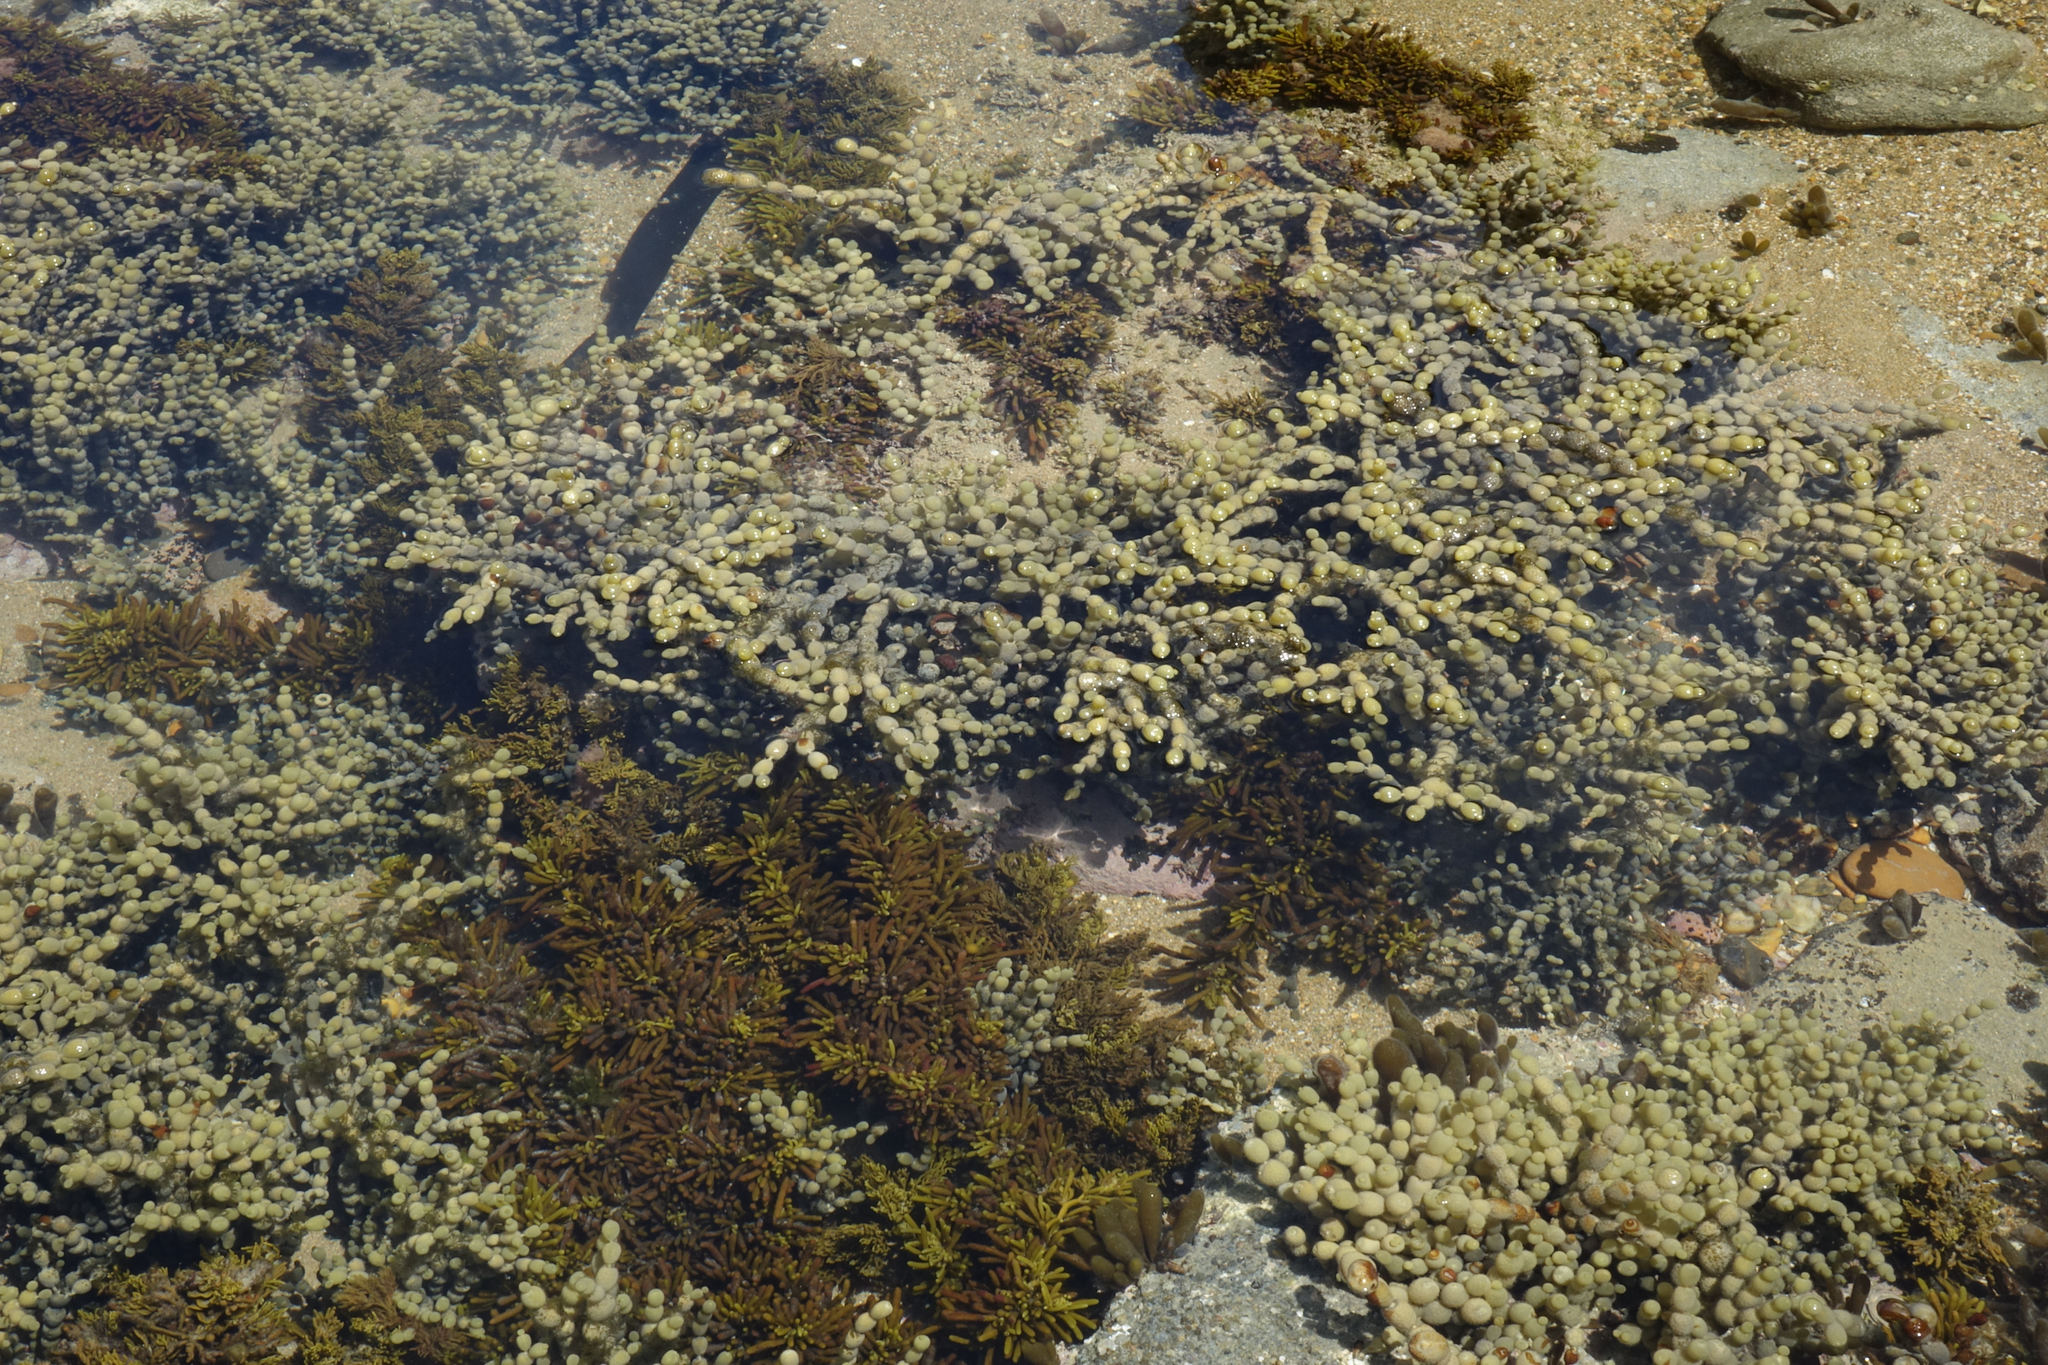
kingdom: Chromista
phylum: Ochrophyta
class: Phaeophyceae
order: Fucales
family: Hormosiraceae
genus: Hormosira
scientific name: Hormosira banksii
